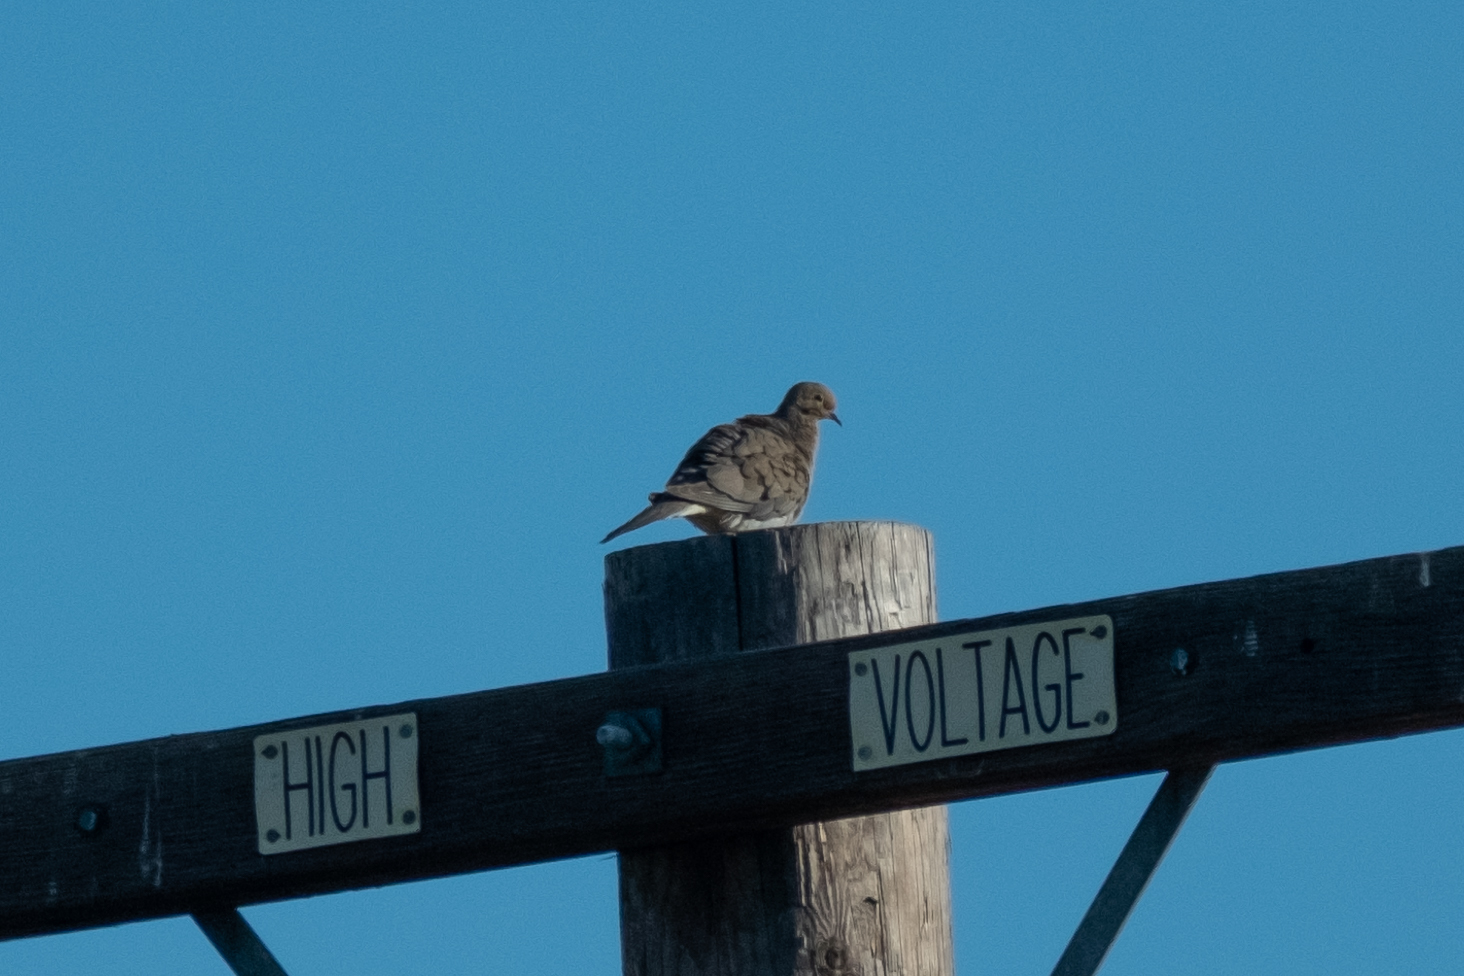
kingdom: Animalia
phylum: Chordata
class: Aves
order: Columbiformes
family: Columbidae
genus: Zenaida
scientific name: Zenaida macroura
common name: Mourning dove
